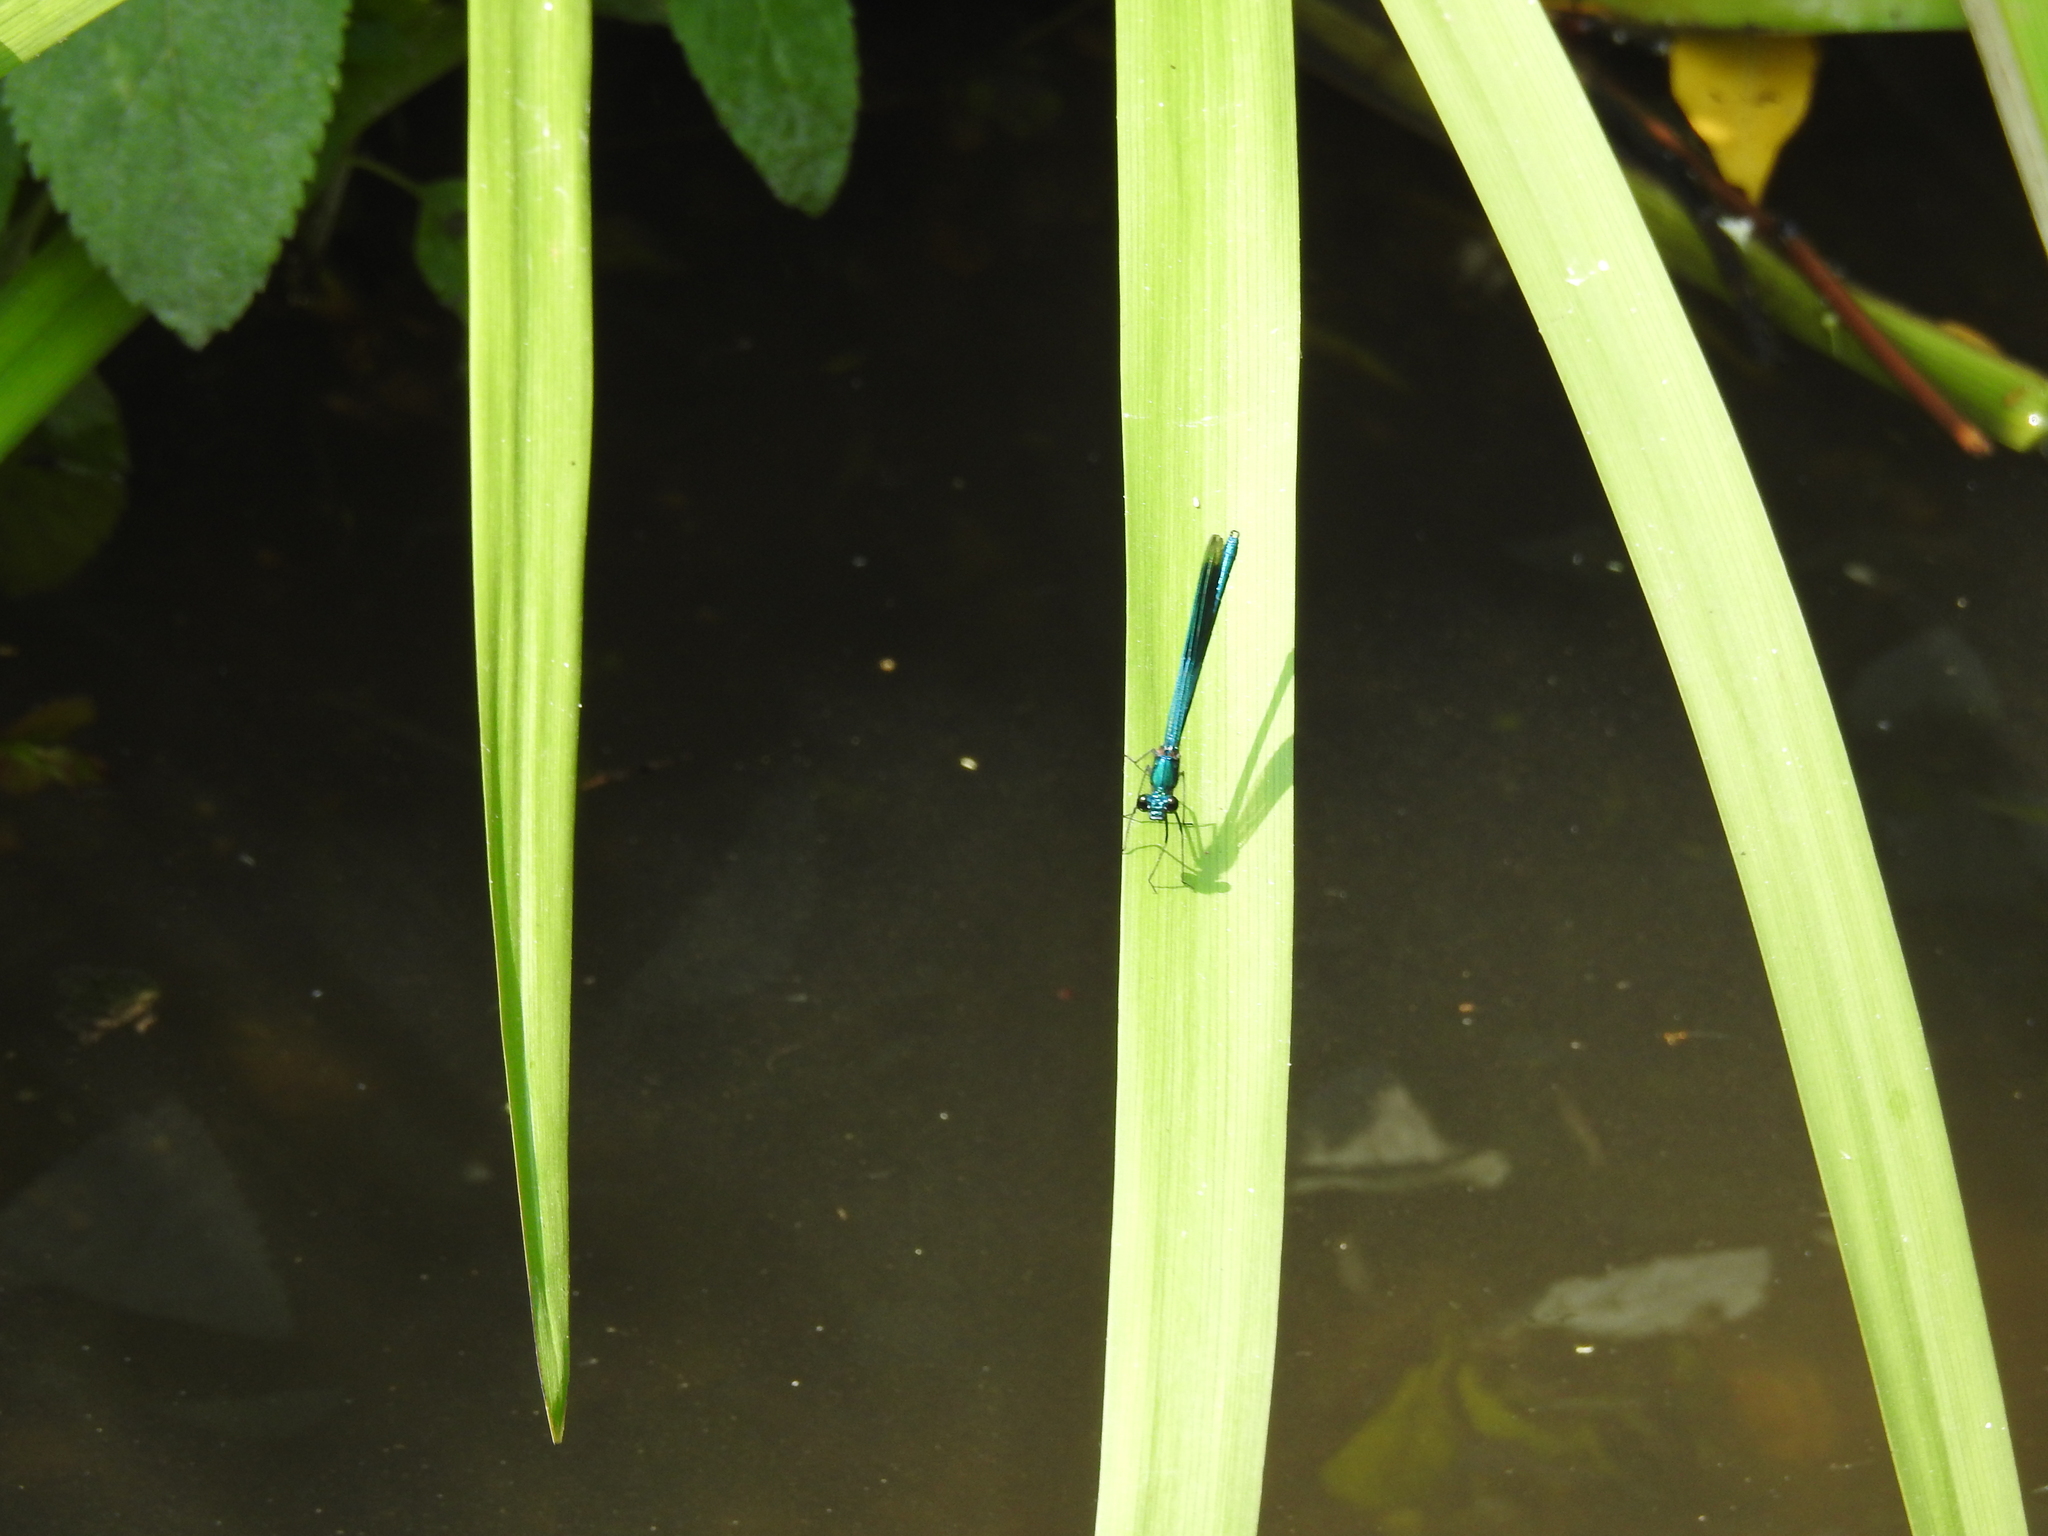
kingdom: Animalia
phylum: Arthropoda
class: Insecta
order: Odonata
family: Calopterygidae
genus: Calopteryx
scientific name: Calopteryx splendens
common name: Banded demoiselle
